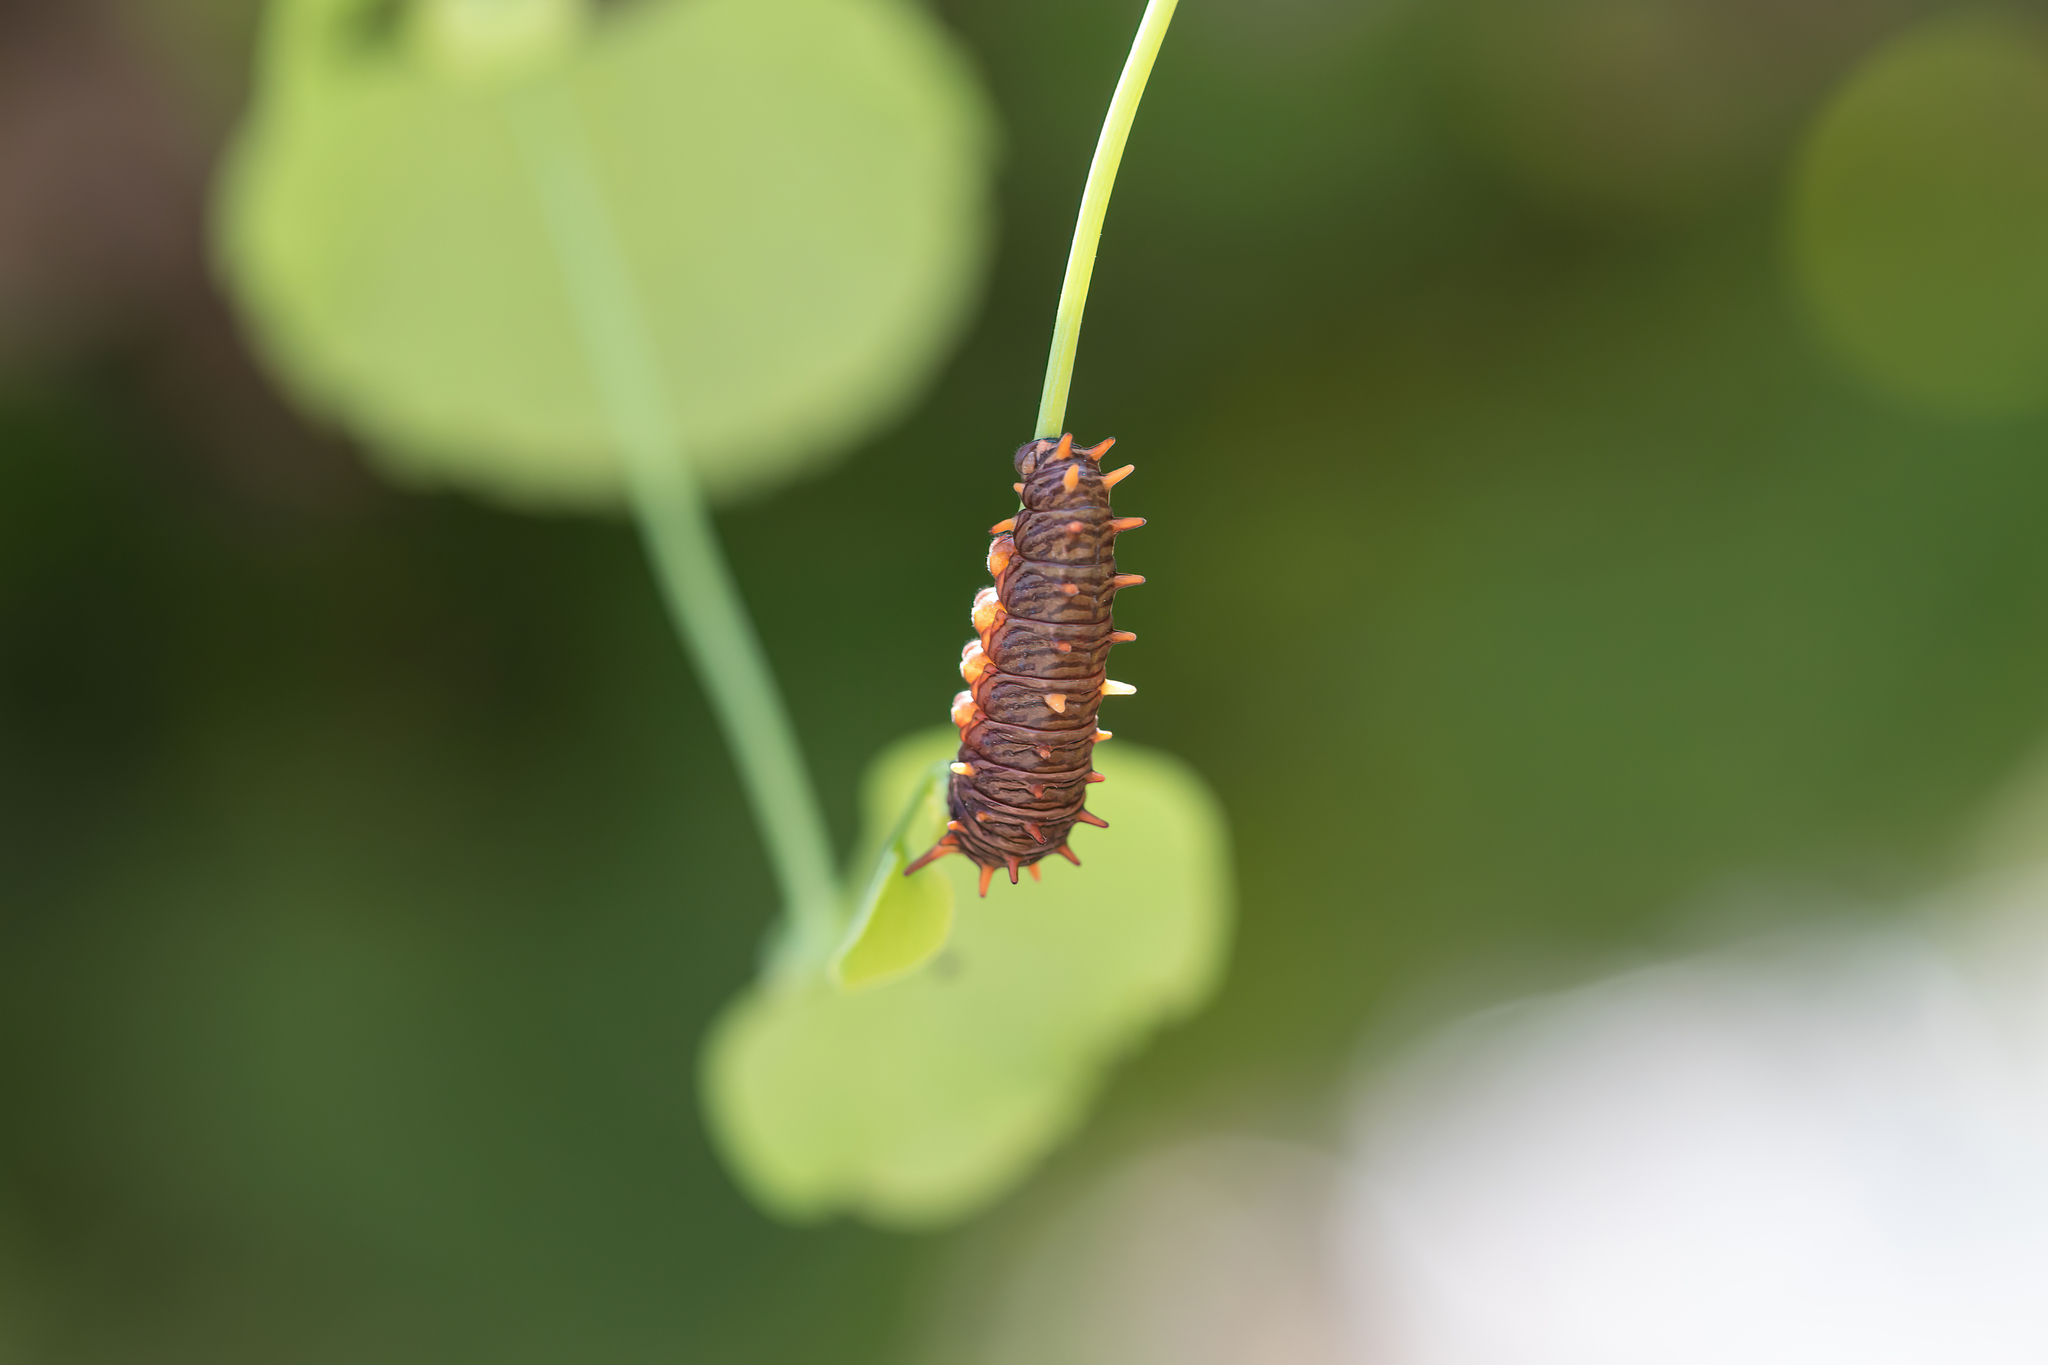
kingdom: Animalia
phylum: Arthropoda
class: Insecta
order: Lepidoptera
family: Papilionidae
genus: Battus
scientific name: Battus polydamas
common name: Polydamas swallowtail
